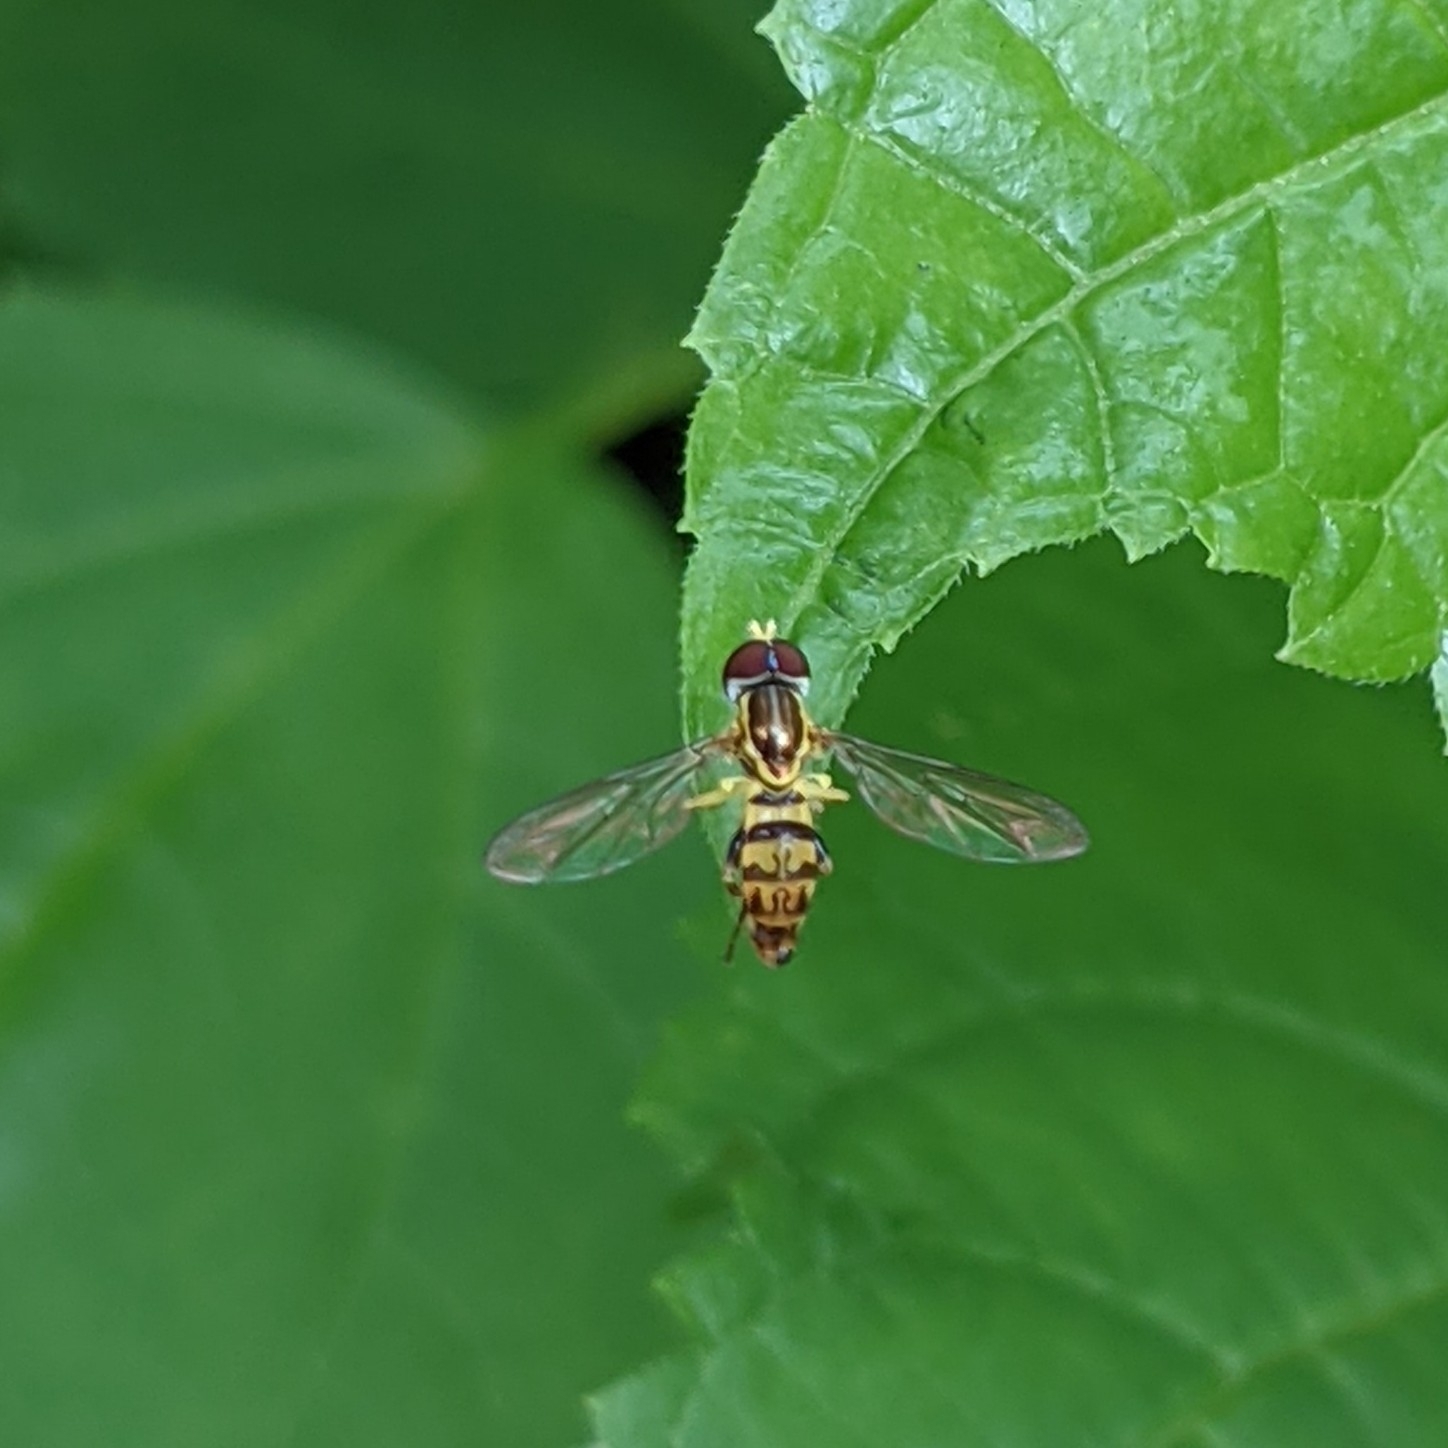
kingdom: Animalia
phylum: Arthropoda
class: Insecta
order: Diptera
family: Syrphidae
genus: Toxomerus
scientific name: Toxomerus geminatus
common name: Eastern calligrapher
